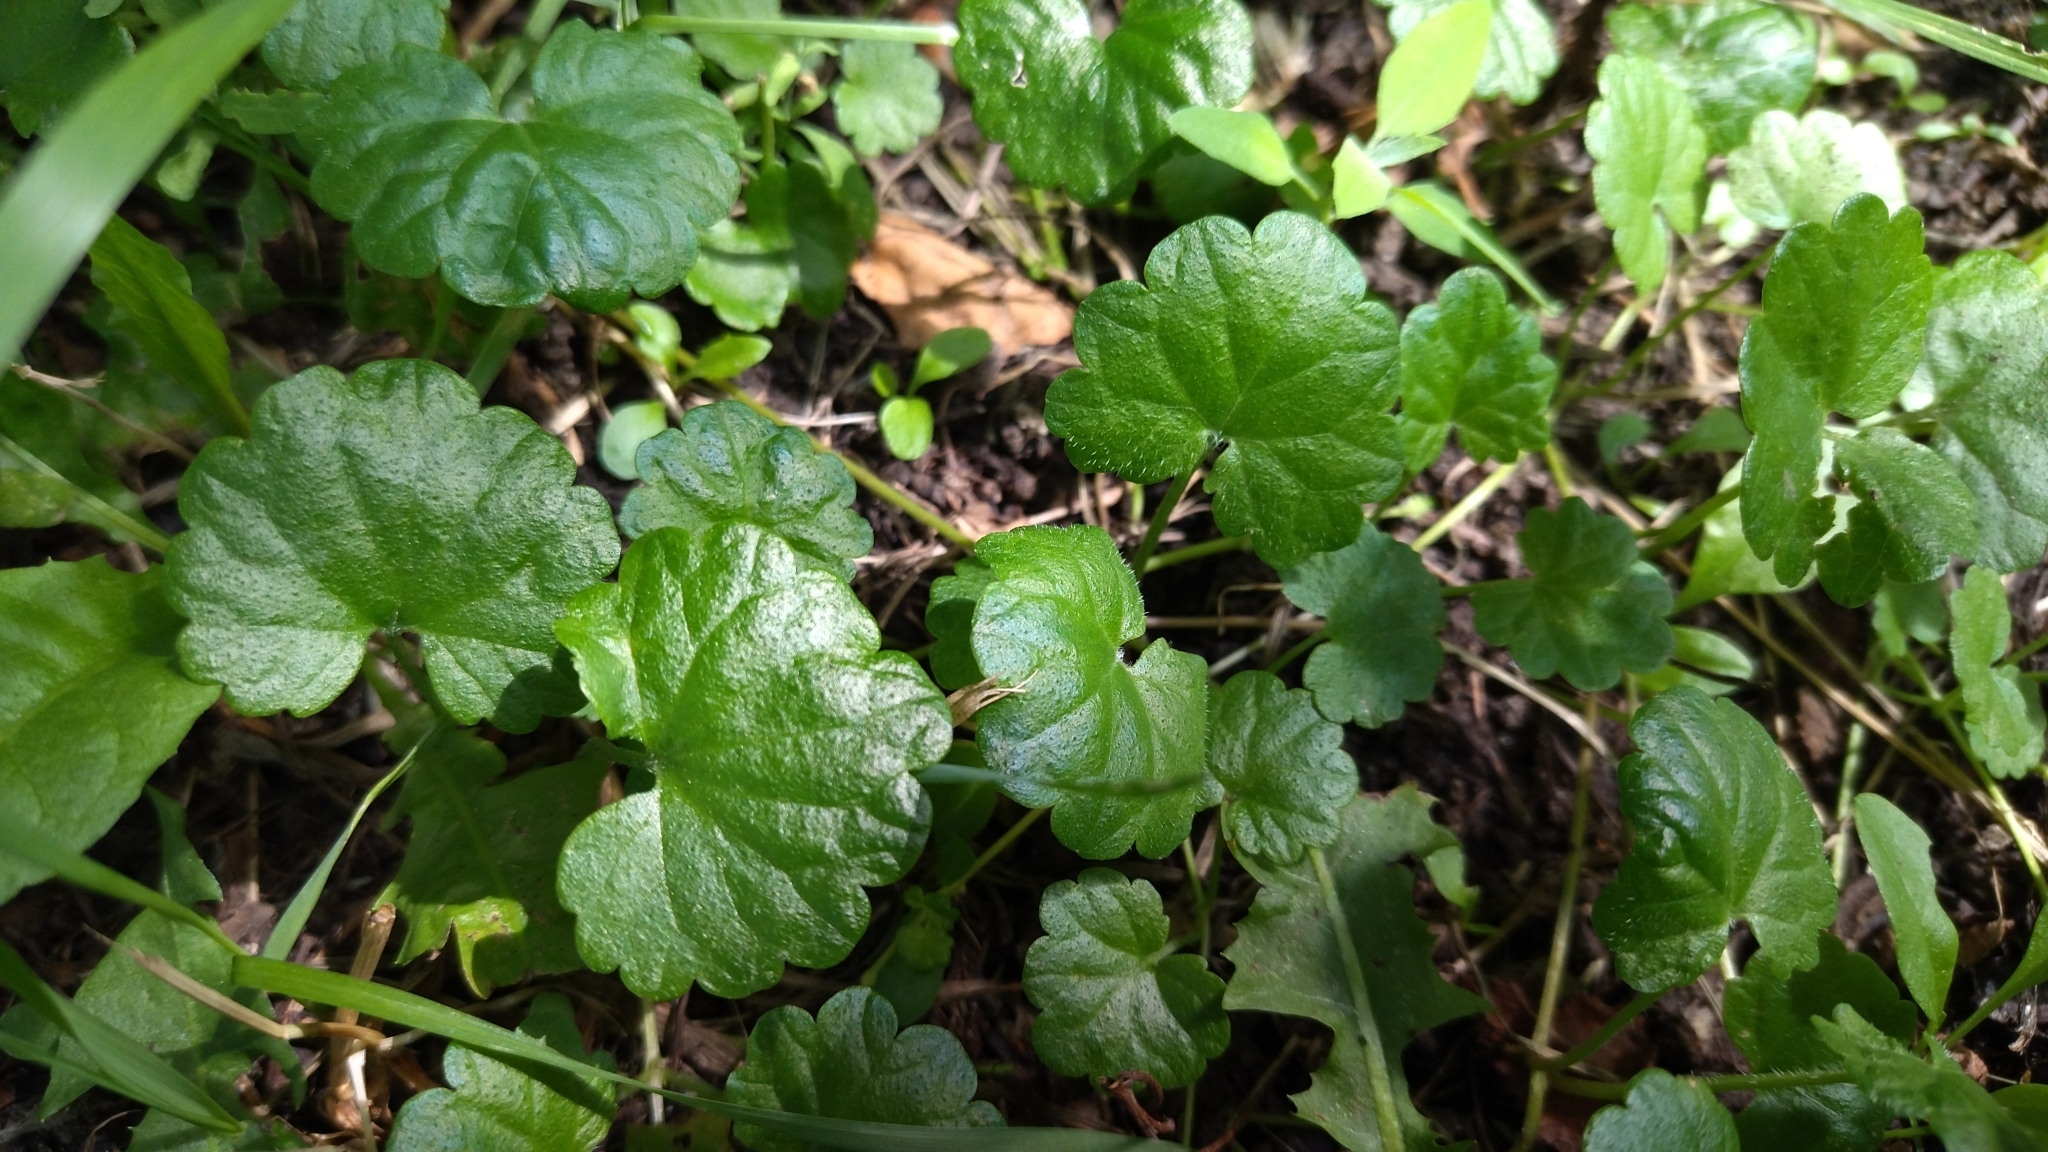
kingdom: Plantae
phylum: Tracheophyta
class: Magnoliopsida
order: Lamiales
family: Lamiaceae
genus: Glechoma
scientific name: Glechoma hederacea
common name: Ground ivy
